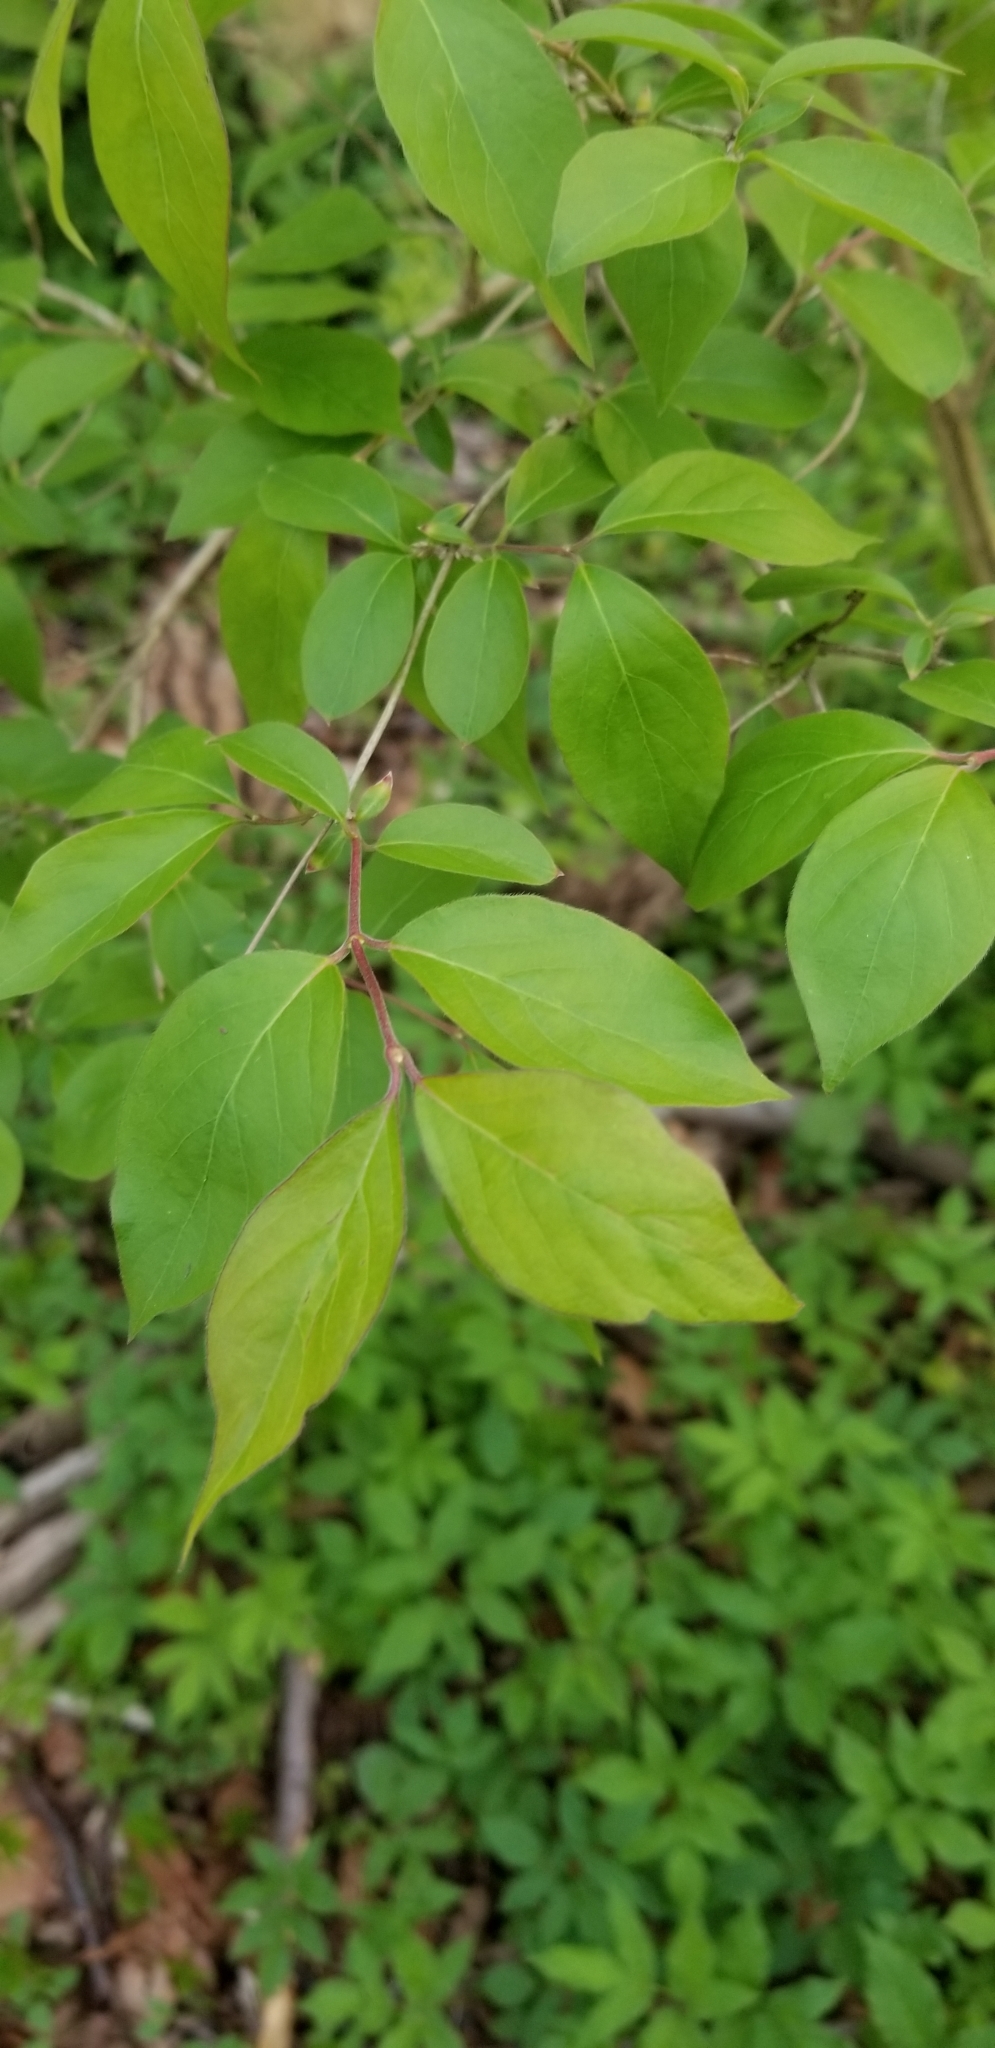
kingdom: Plantae
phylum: Tracheophyta
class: Magnoliopsida
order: Dipsacales
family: Caprifoliaceae
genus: Lonicera
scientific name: Lonicera maackii
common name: Amur honeysuckle
